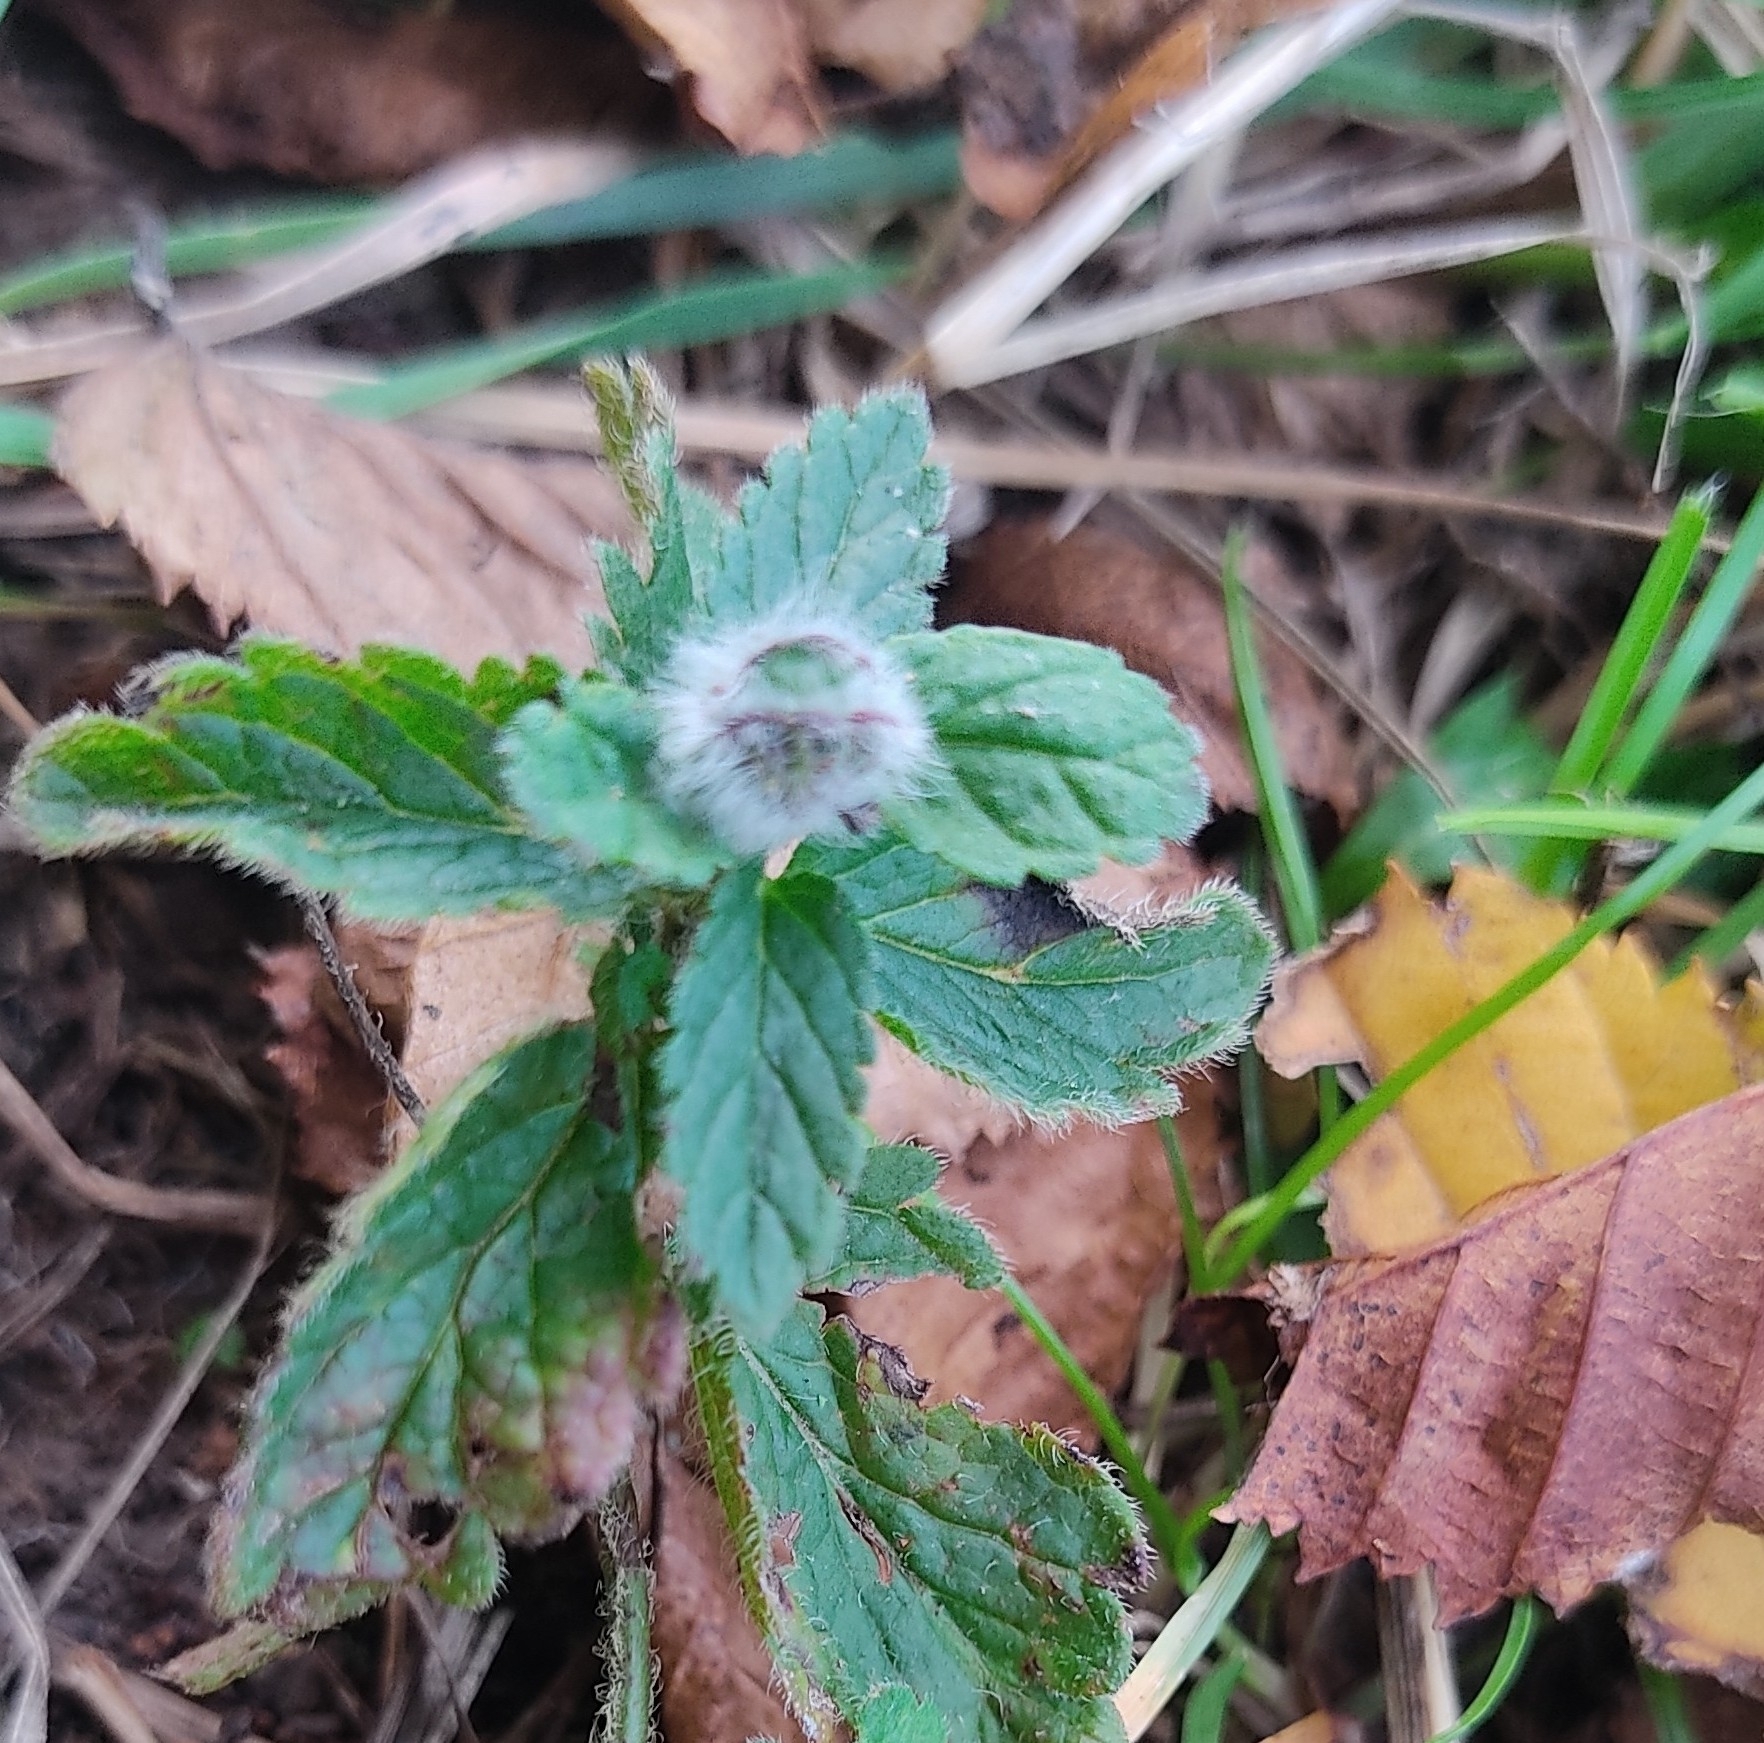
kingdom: Animalia
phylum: Arthropoda
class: Insecta
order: Diptera
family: Cecidomyiidae
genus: Jaapiella
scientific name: Jaapiella veronicae
